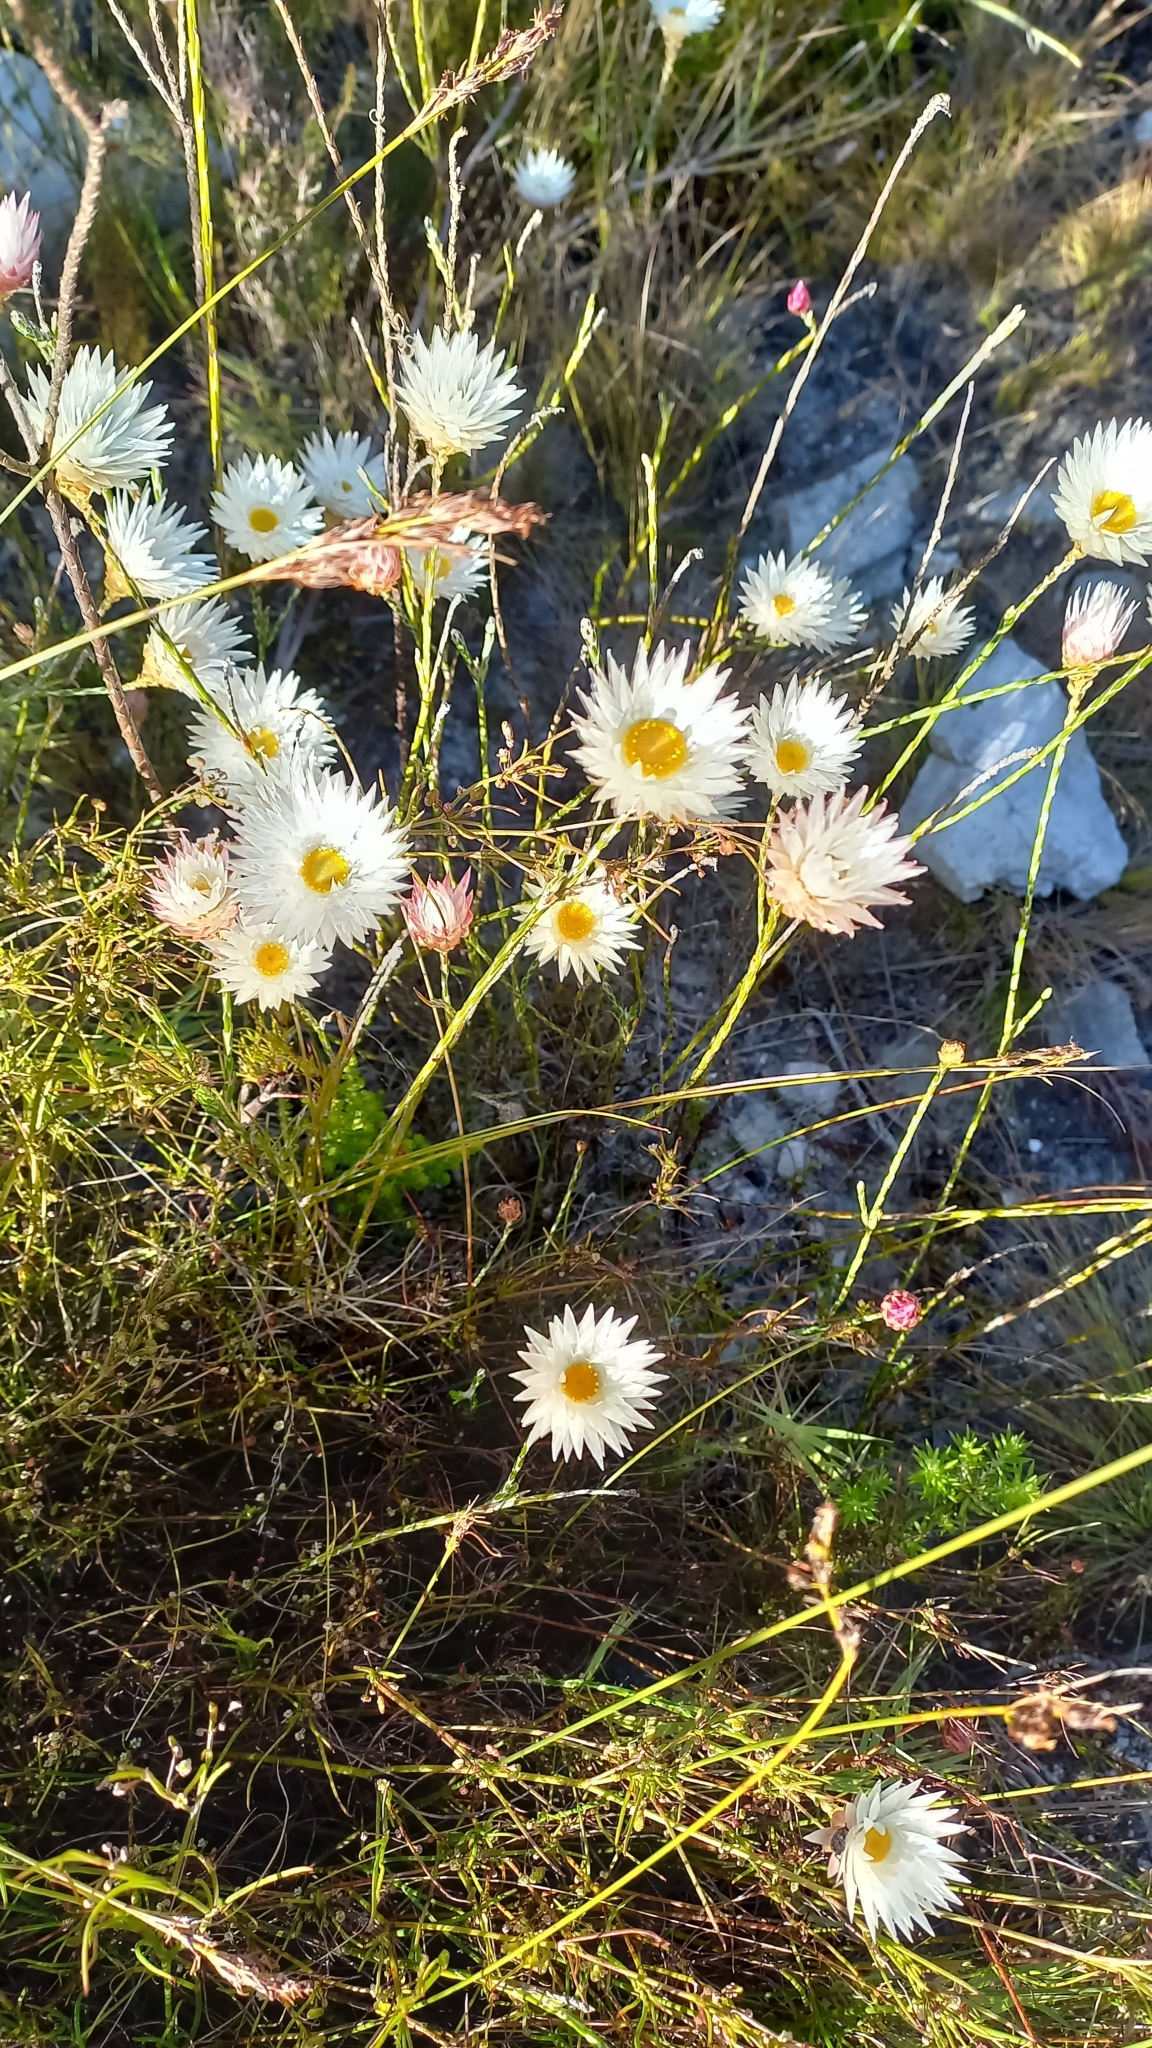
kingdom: Plantae
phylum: Tracheophyta
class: Magnoliopsida
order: Asterales
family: Asteraceae
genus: Edmondia
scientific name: Edmondia sesamoides
